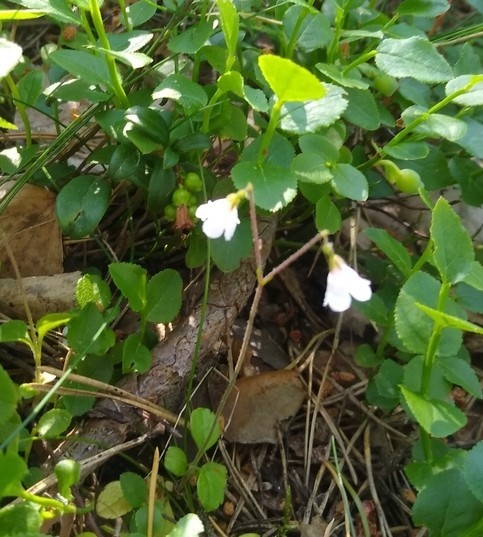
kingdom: Plantae
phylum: Tracheophyta
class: Magnoliopsida
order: Dipsacales
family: Caprifoliaceae
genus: Linnaea
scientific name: Linnaea borealis
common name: Twinflower
